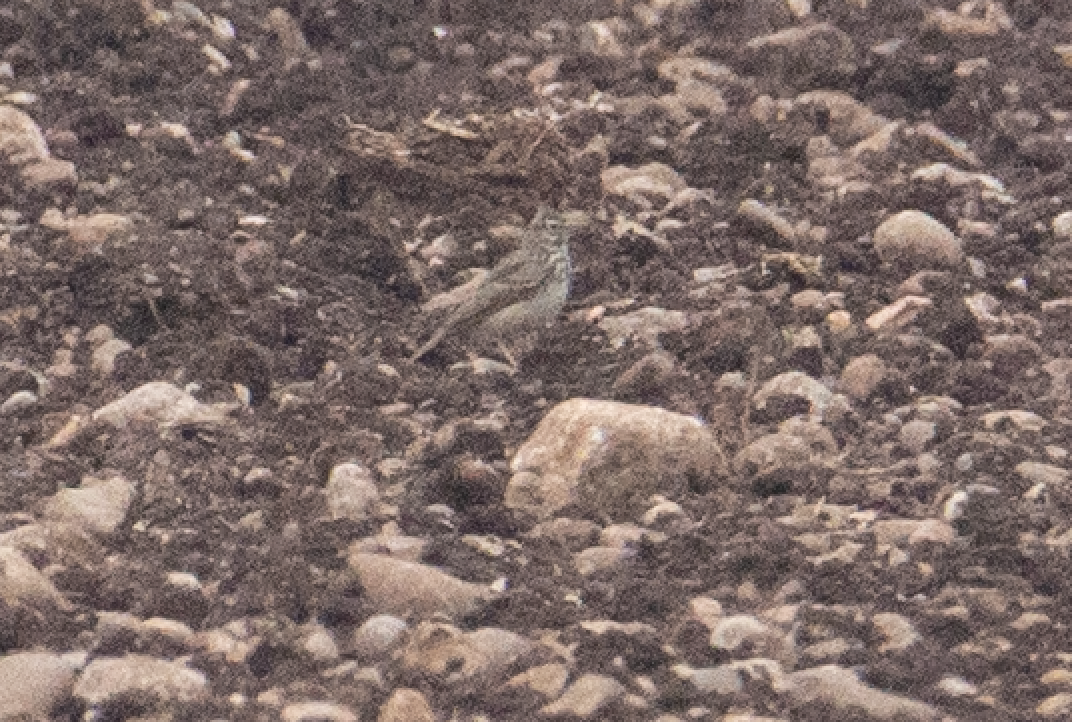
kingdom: Animalia
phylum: Chordata
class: Aves
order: Passeriformes
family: Alaudidae
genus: Galerida
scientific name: Galerida cristata
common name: Crested lark
